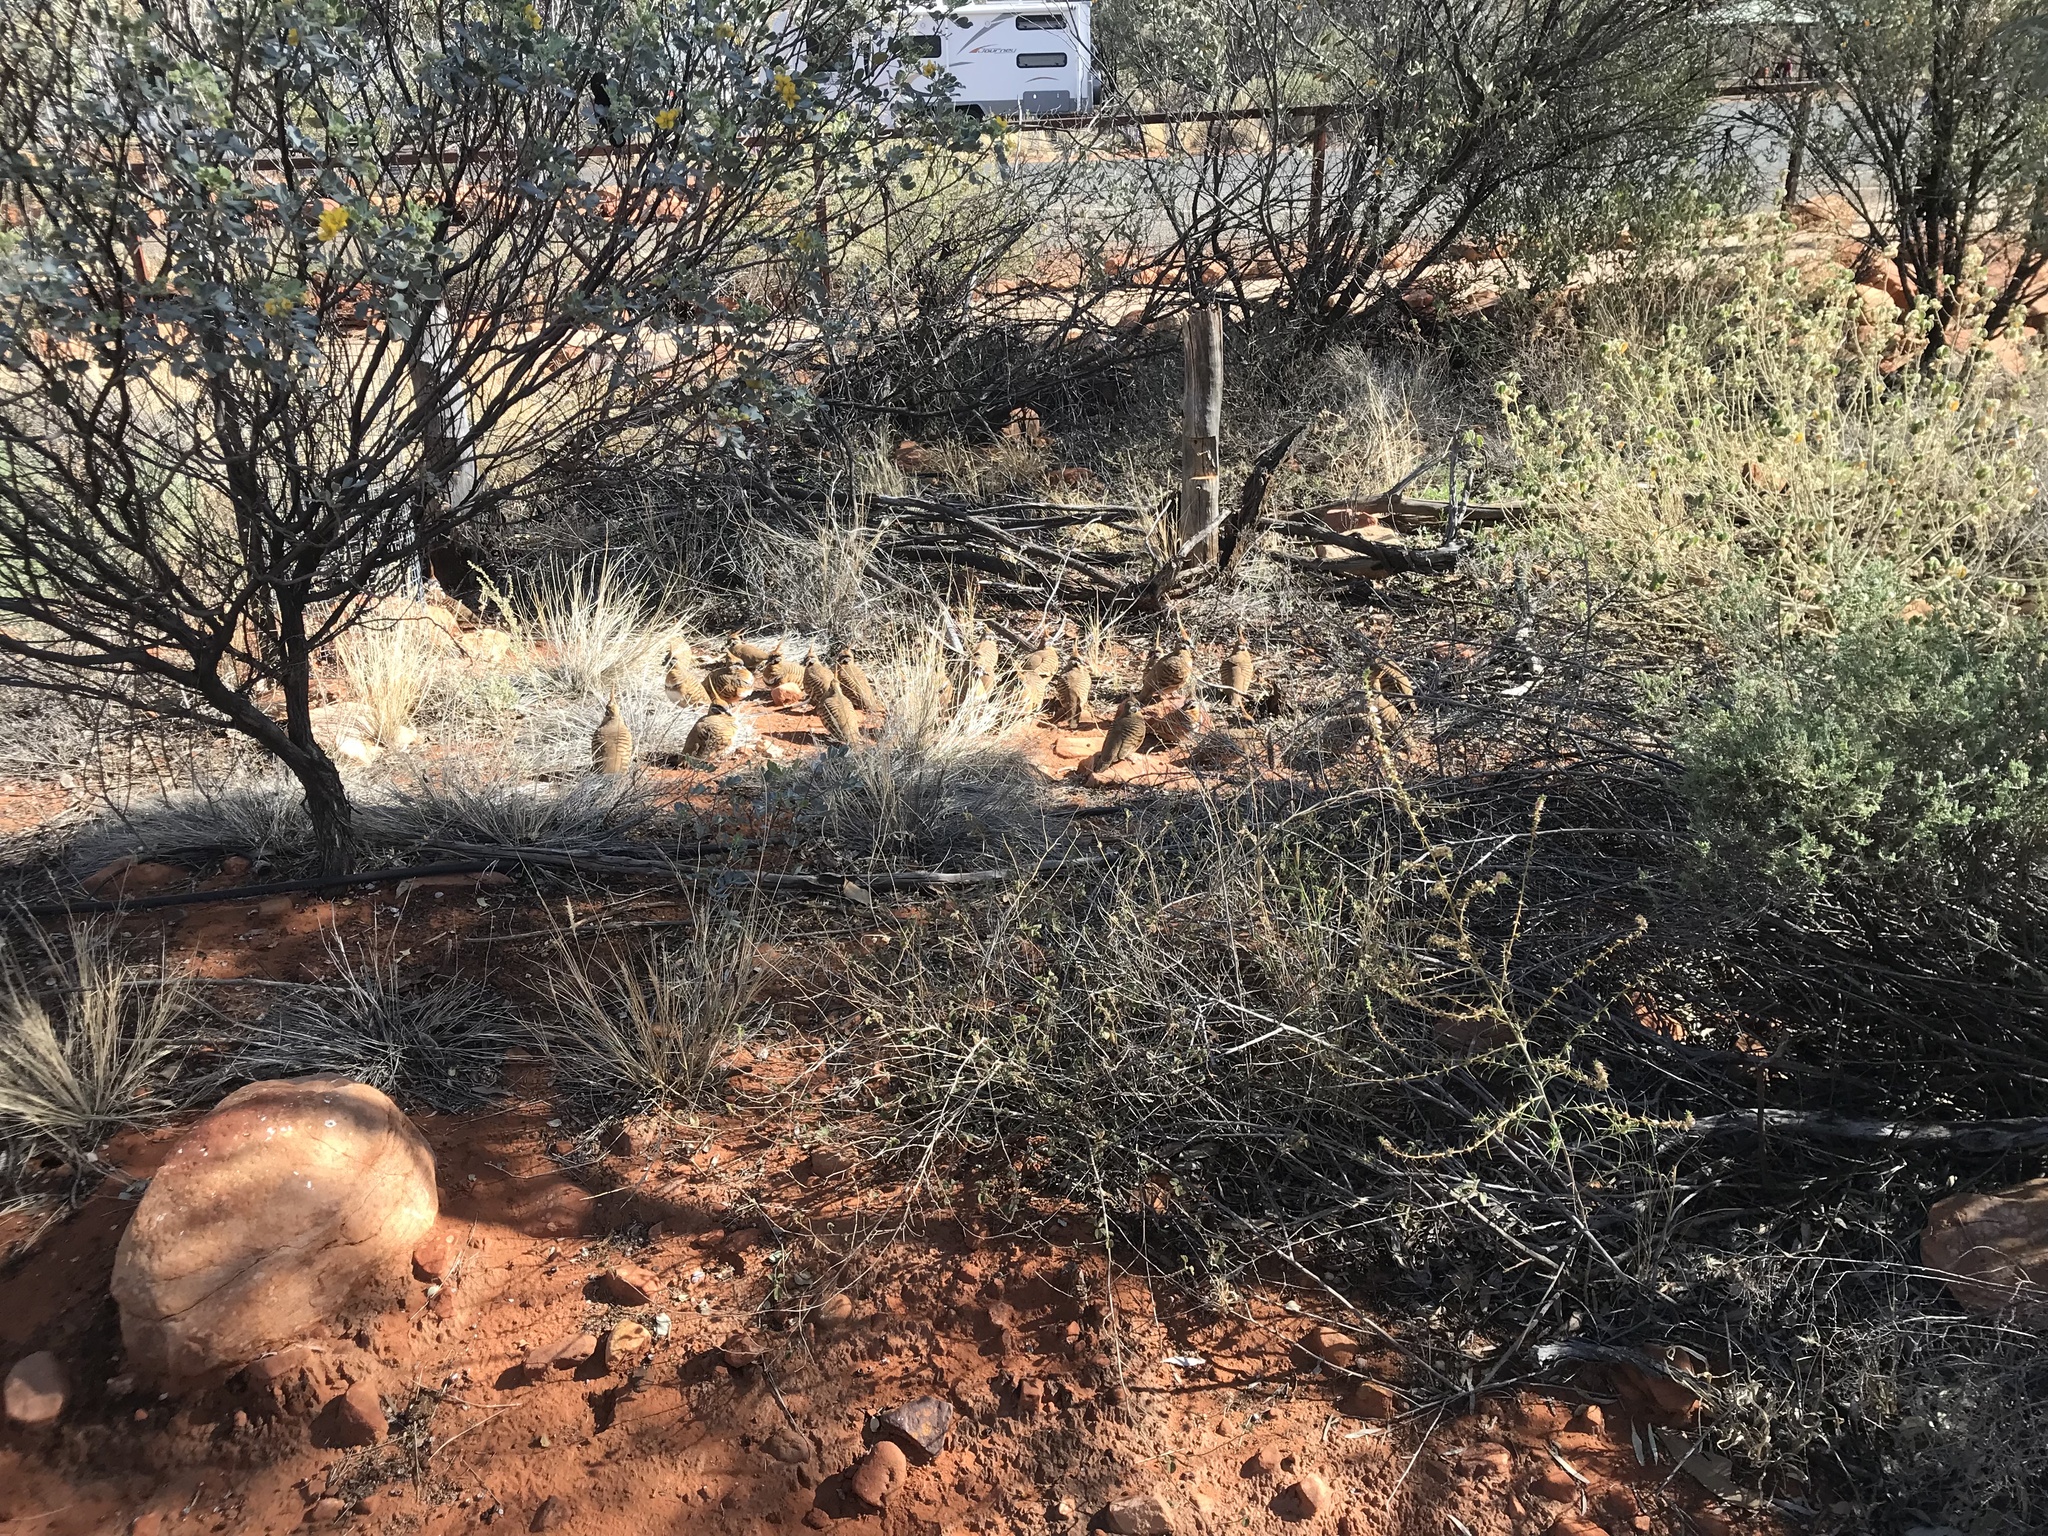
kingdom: Animalia
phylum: Chordata
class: Aves
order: Columbiformes
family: Columbidae
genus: Geophaps
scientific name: Geophaps plumifera
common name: Spinifex pigeon
